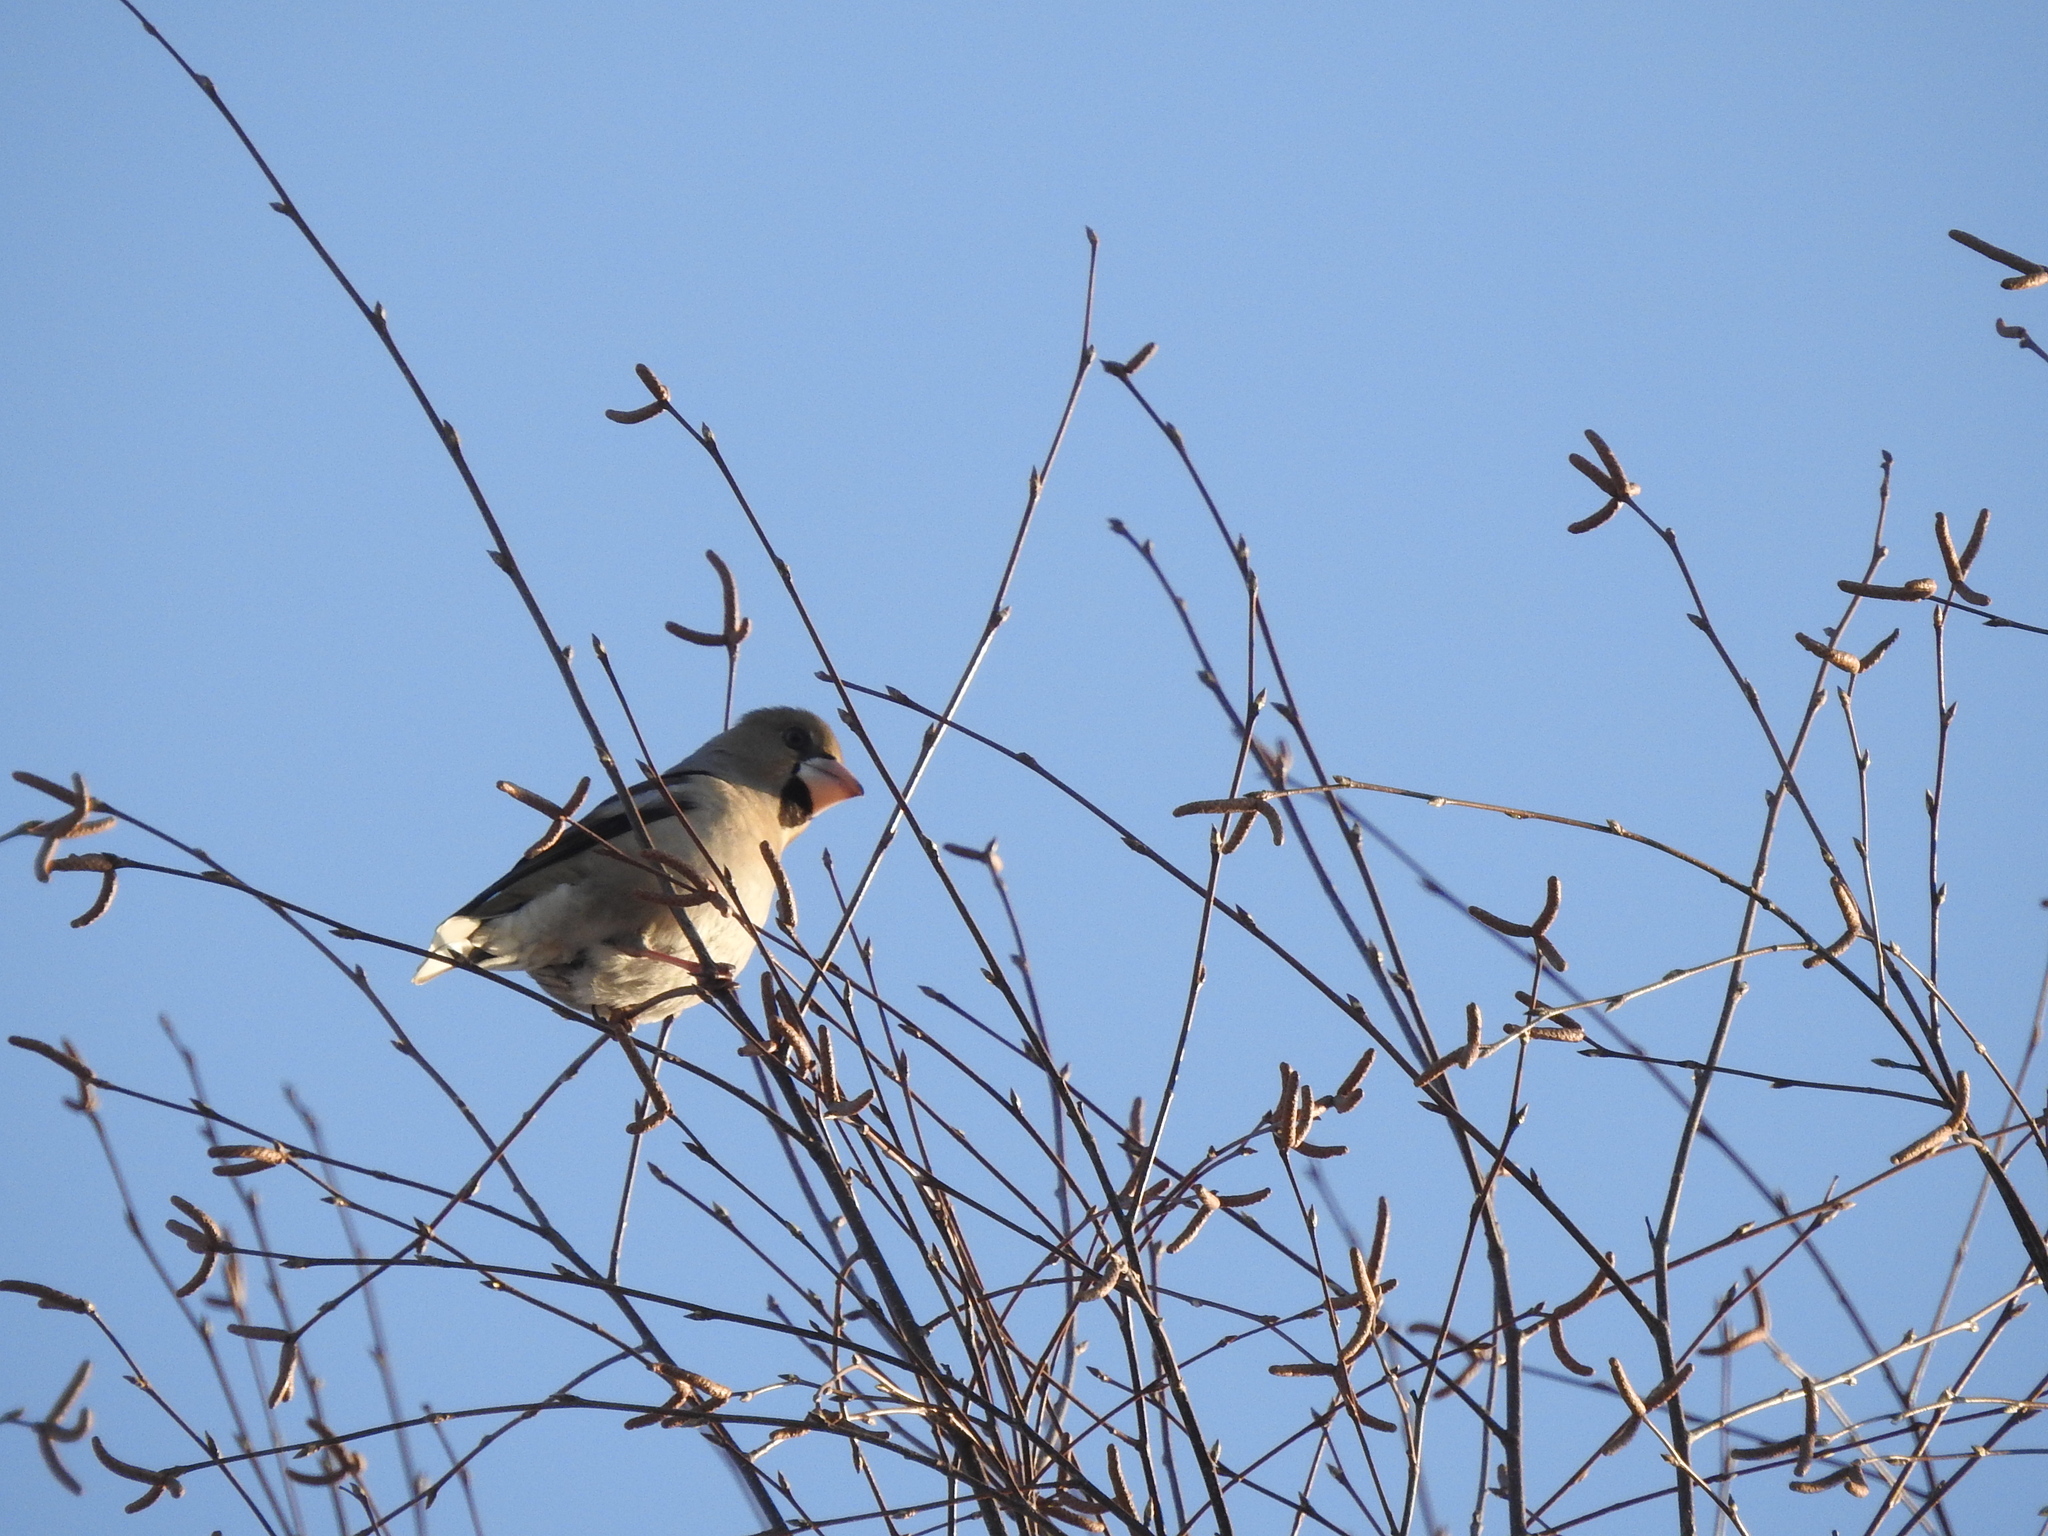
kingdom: Animalia
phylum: Chordata
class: Aves
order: Passeriformes
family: Fringillidae
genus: Coccothraustes
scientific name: Coccothraustes coccothraustes
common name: Hawfinch
